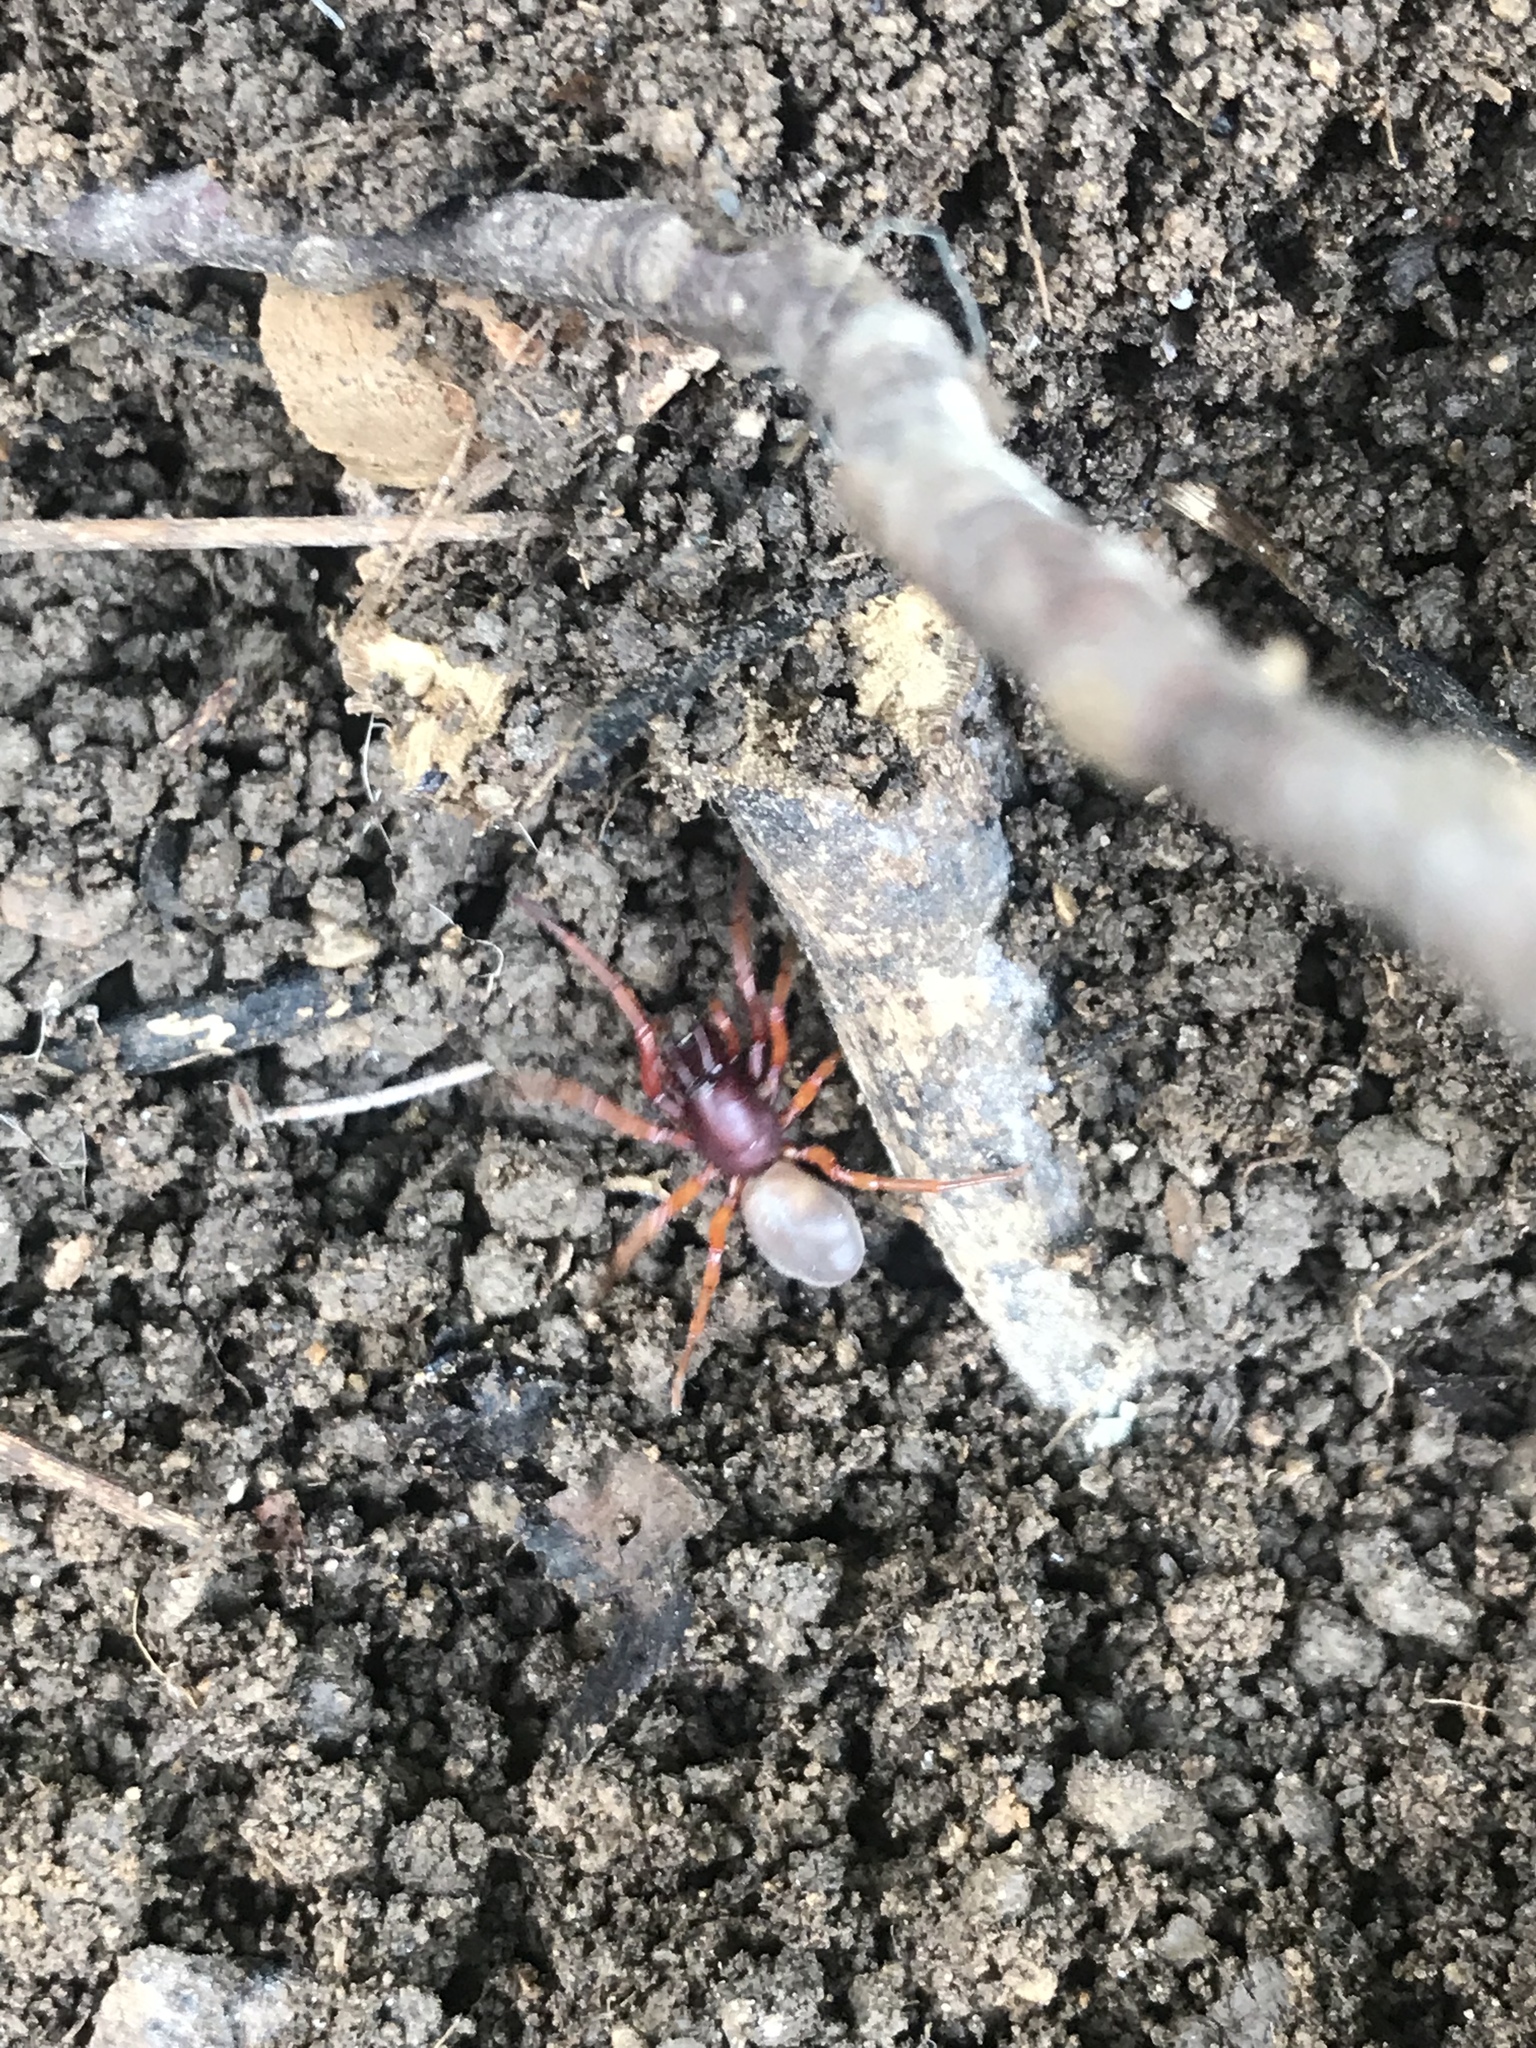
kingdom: Animalia
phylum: Arthropoda
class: Arachnida
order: Araneae
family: Dysderidae
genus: Dysdera
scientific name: Dysdera crocata
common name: Woodlouse spider
